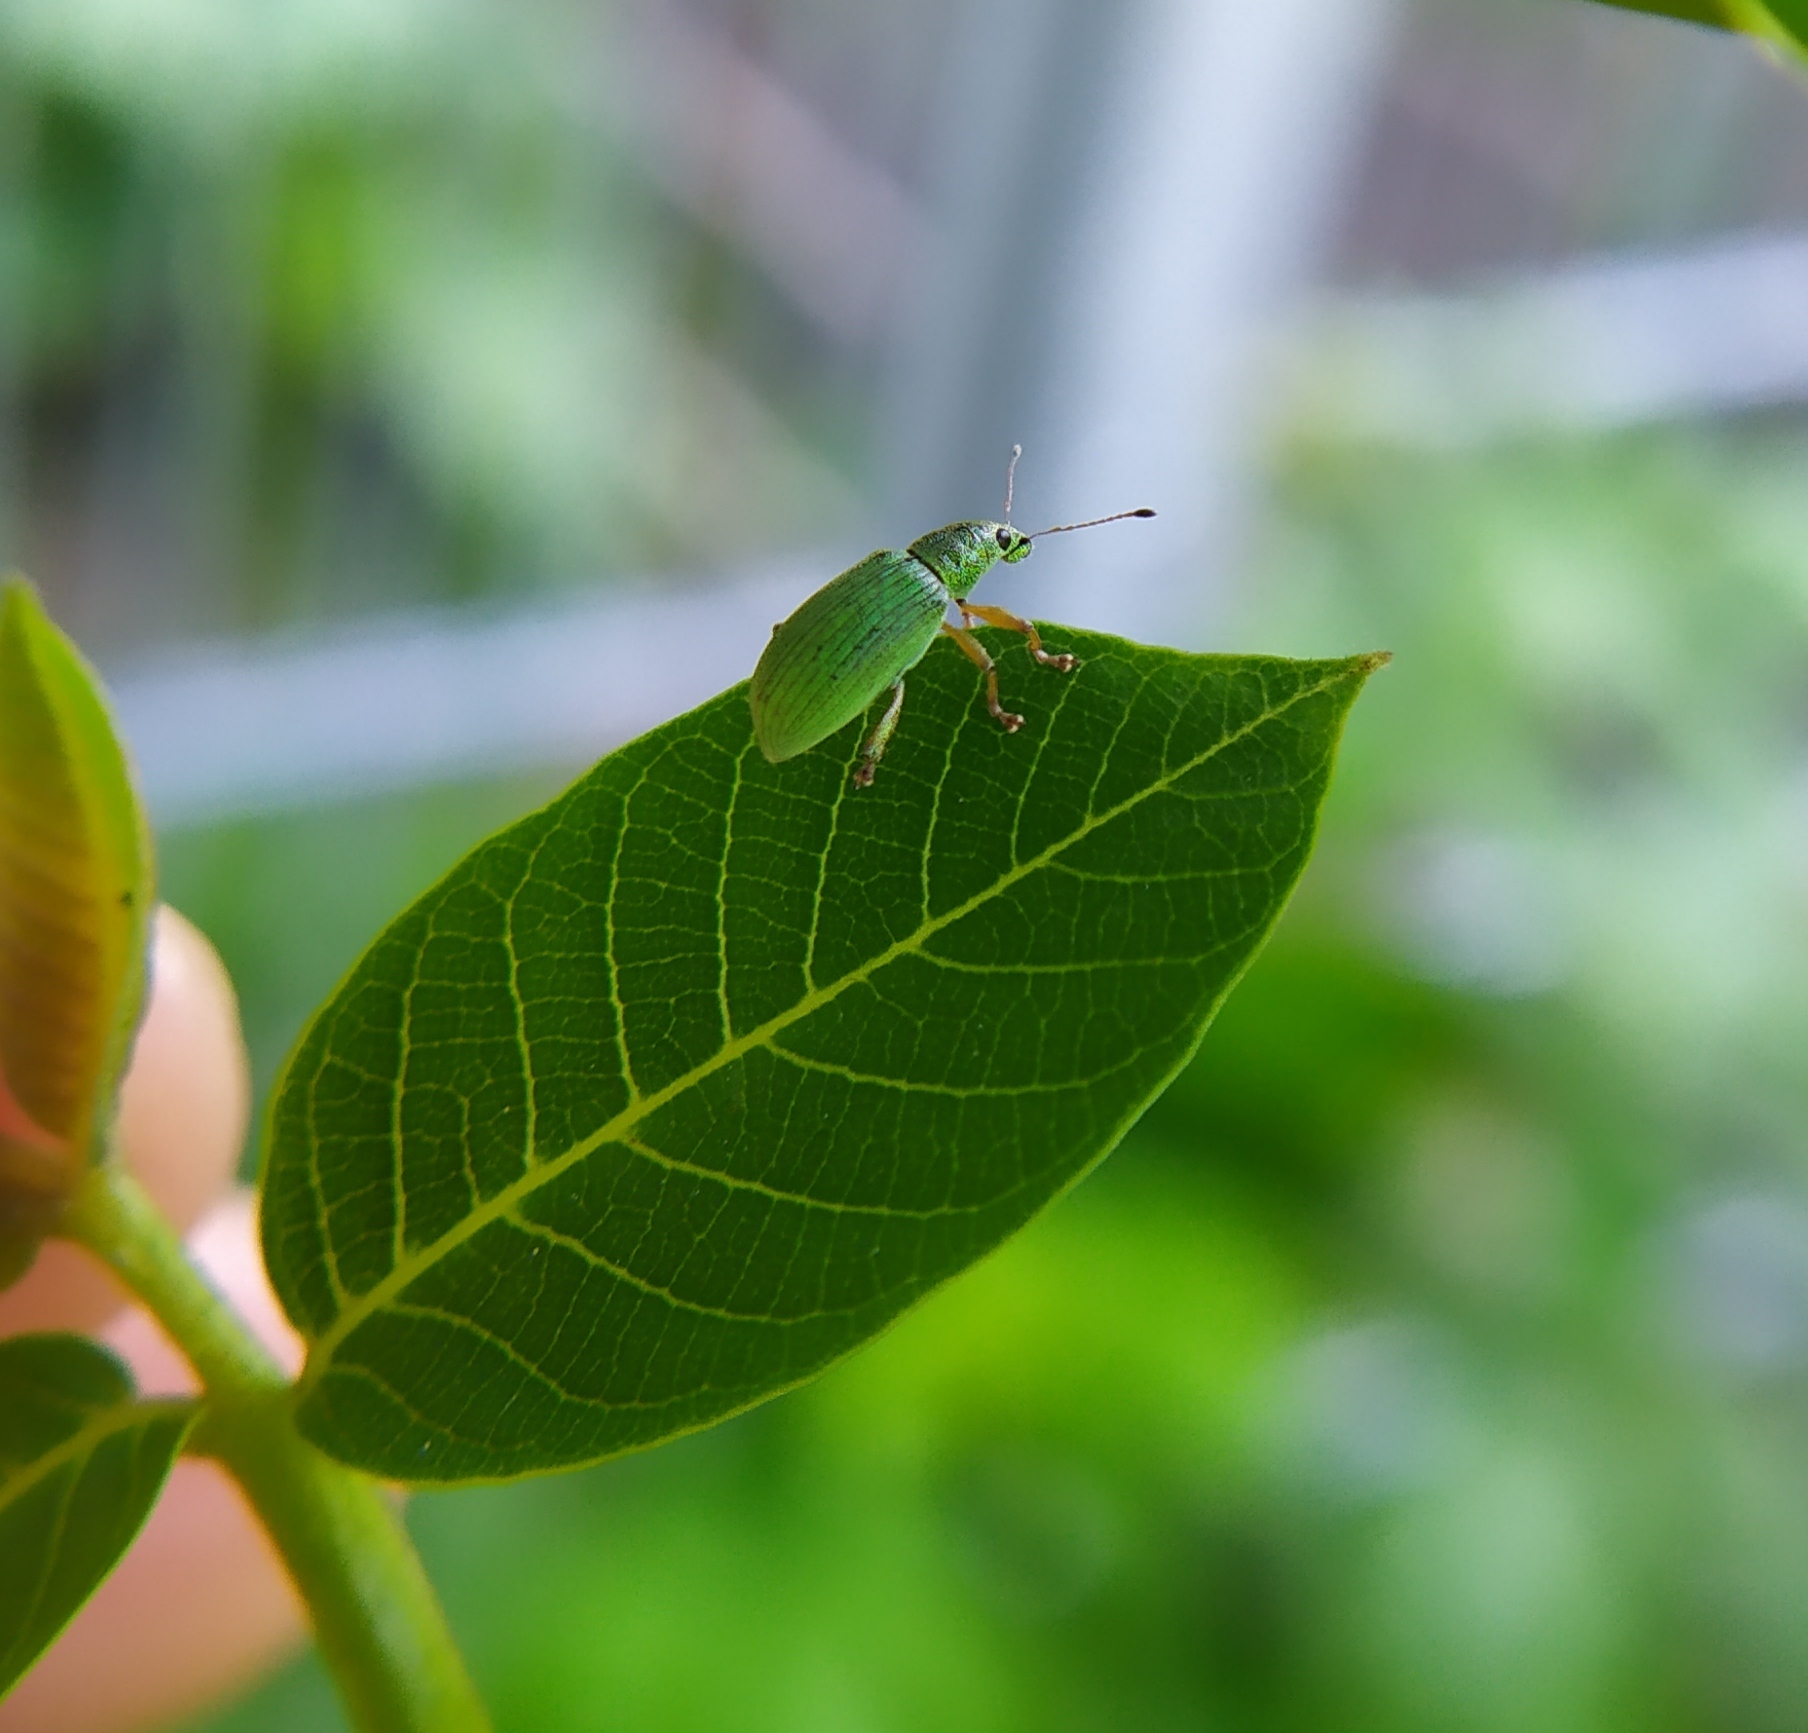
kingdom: Animalia
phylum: Arthropoda
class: Insecta
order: Coleoptera
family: Curculionidae
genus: Polydrusus
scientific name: Polydrusus formosus
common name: Weevil
